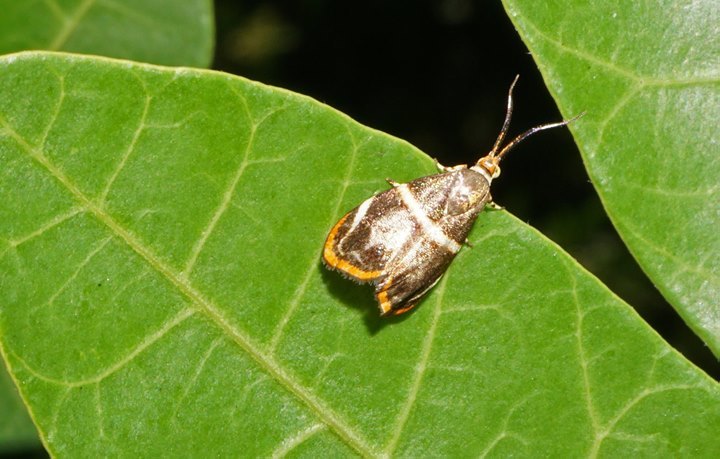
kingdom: Animalia
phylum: Arthropoda
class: Insecta
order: Lepidoptera
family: Choreutidae
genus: Hemerophila
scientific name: Hemerophila
